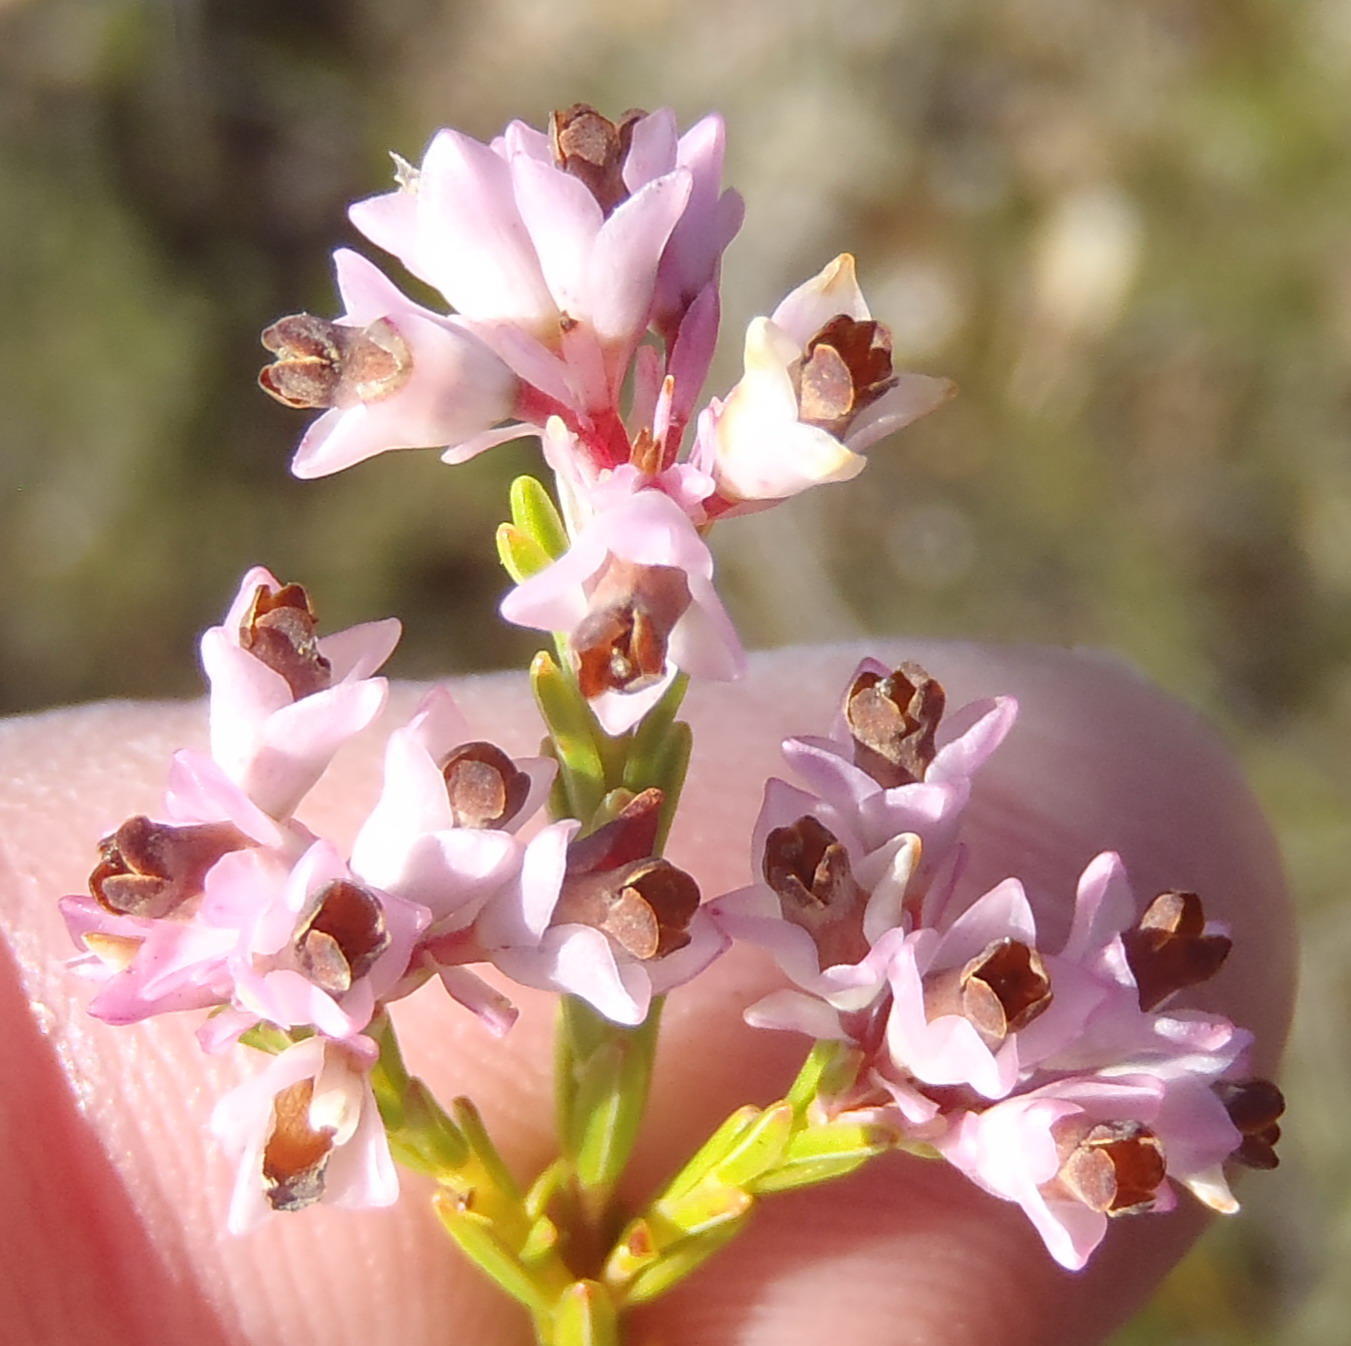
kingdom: Plantae
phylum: Tracheophyta
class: Magnoliopsida
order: Ericales
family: Ericaceae
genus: Erica
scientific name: Erica articularis
